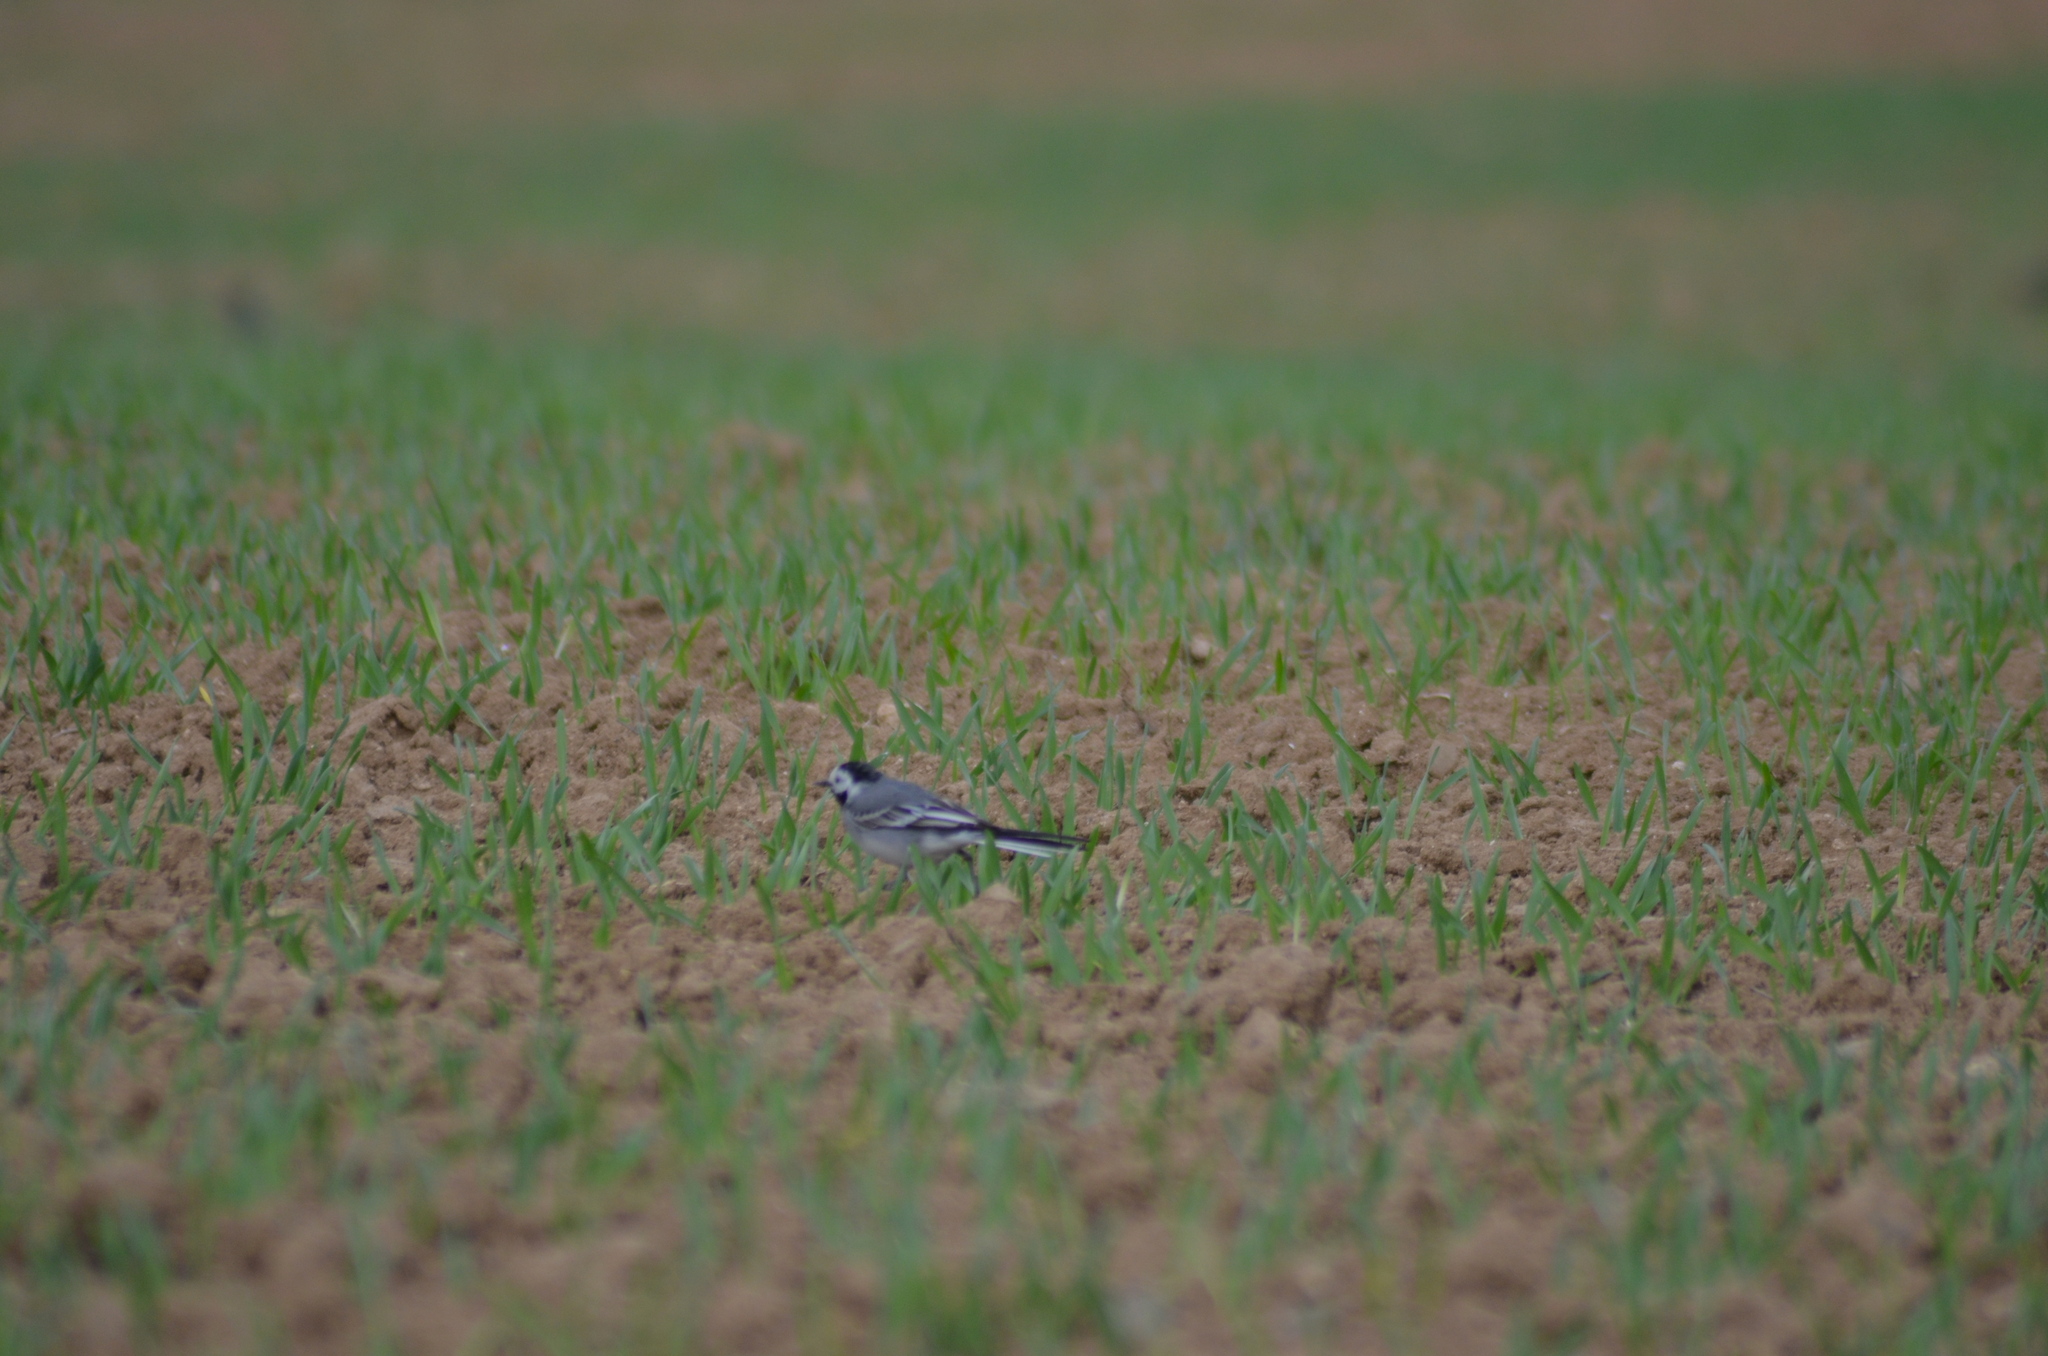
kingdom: Animalia
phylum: Chordata
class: Aves
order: Passeriformes
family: Motacillidae
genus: Motacilla
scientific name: Motacilla alba
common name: White wagtail
